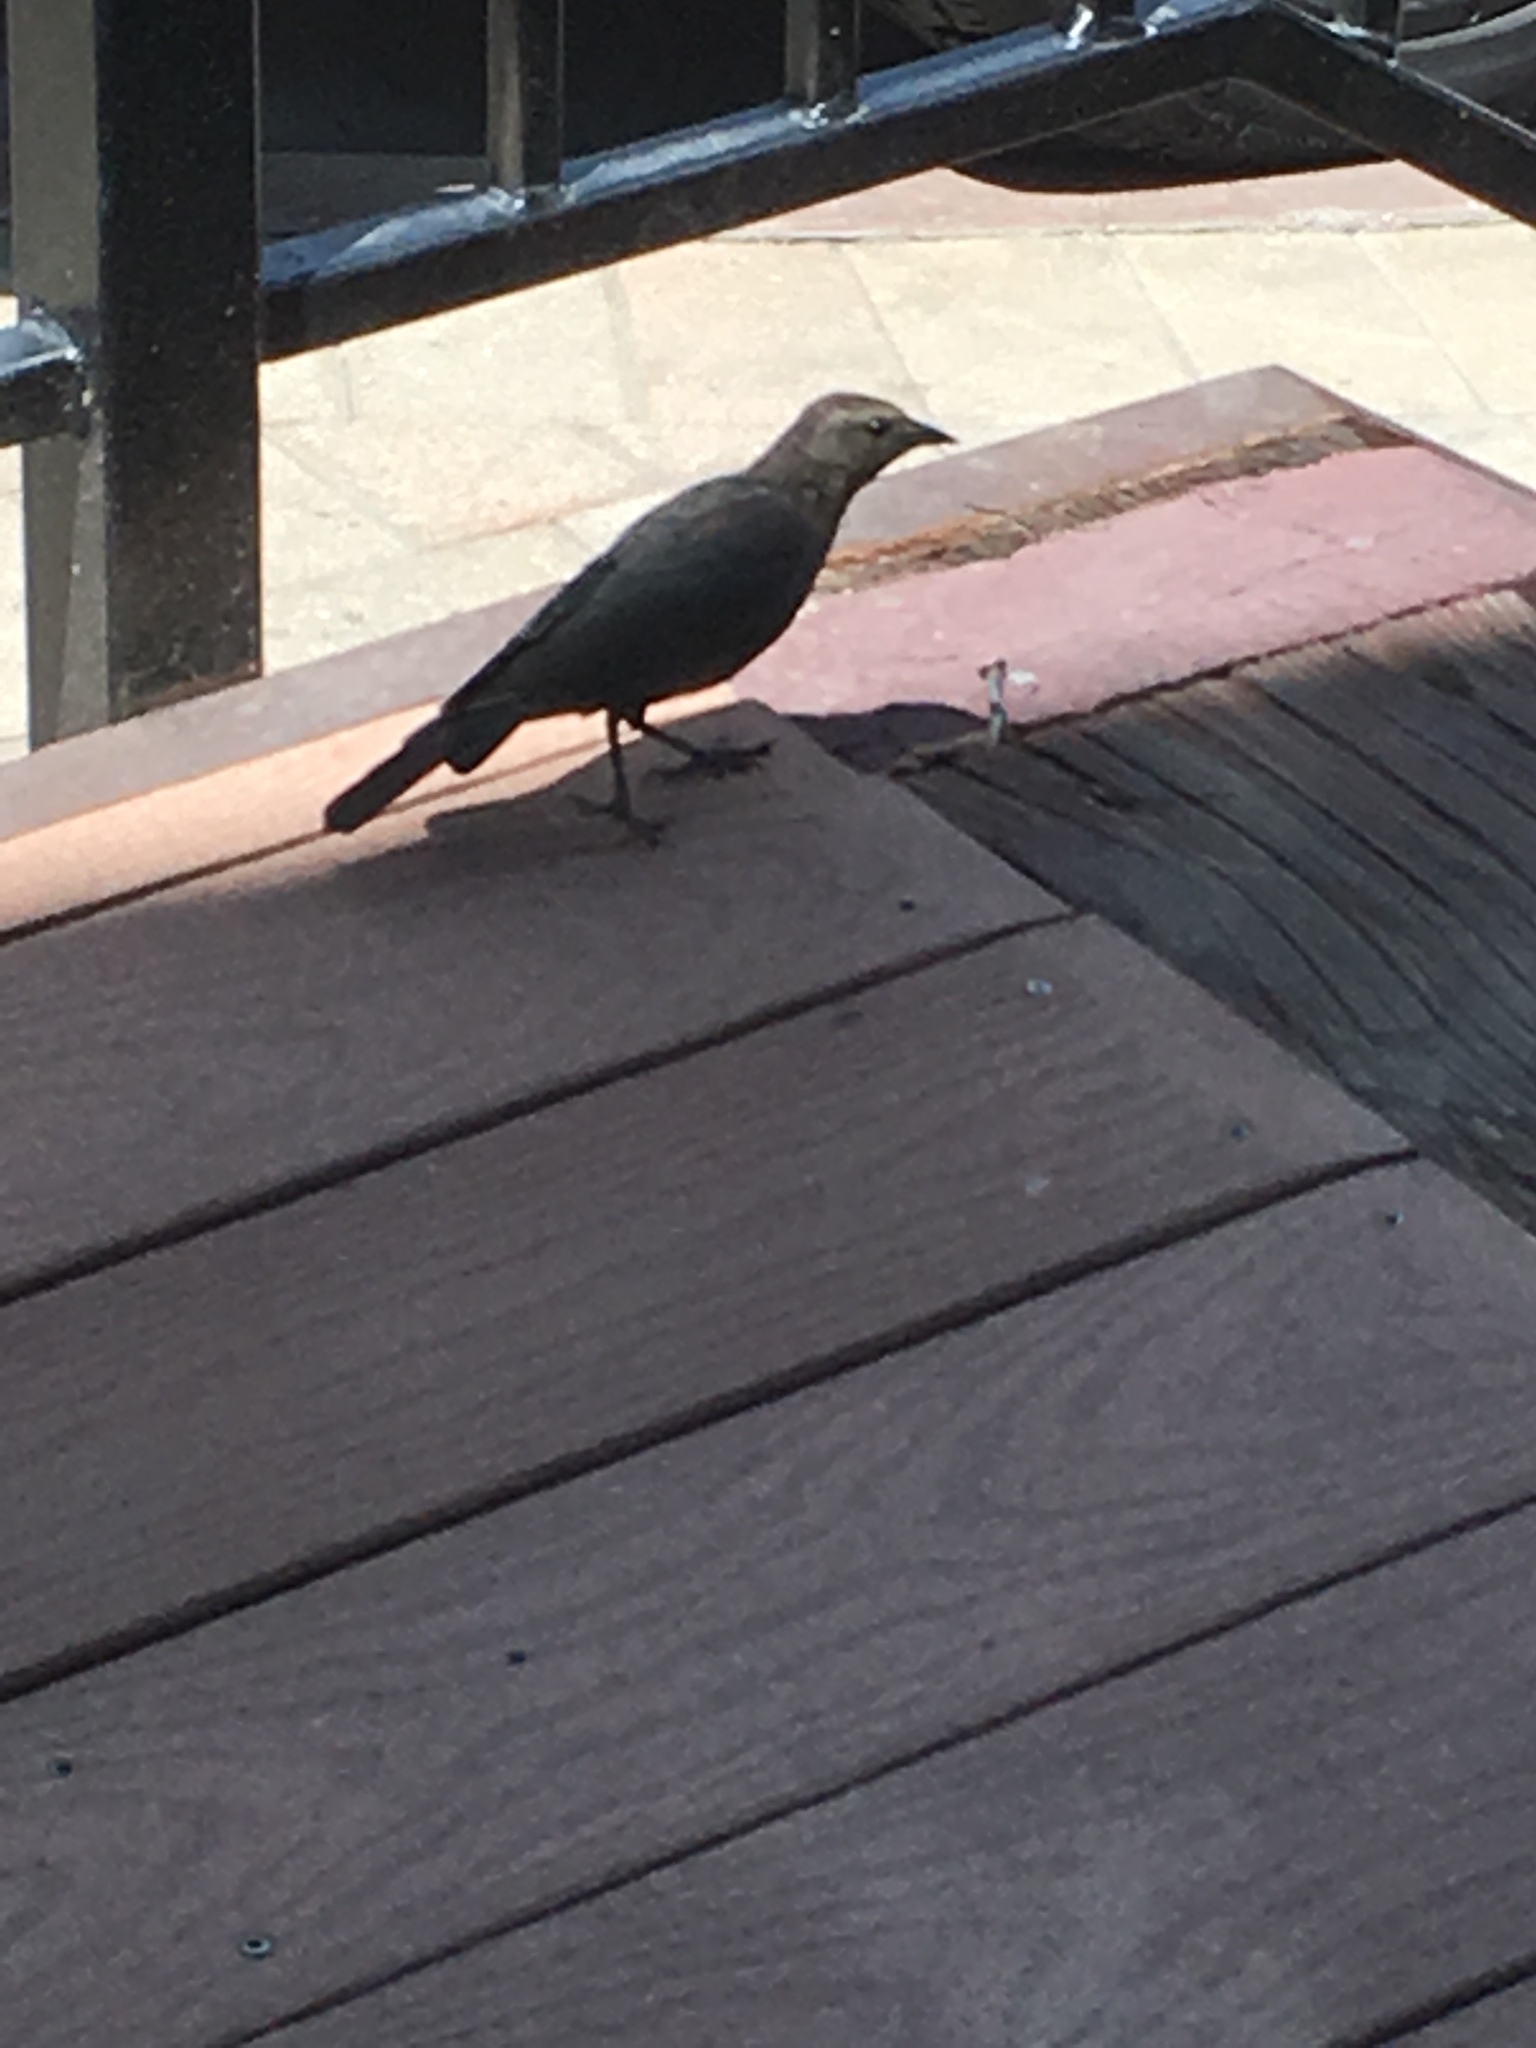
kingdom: Animalia
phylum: Chordata
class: Aves
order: Passeriformes
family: Icteridae
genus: Euphagus
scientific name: Euphagus cyanocephalus
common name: Brewer's blackbird
